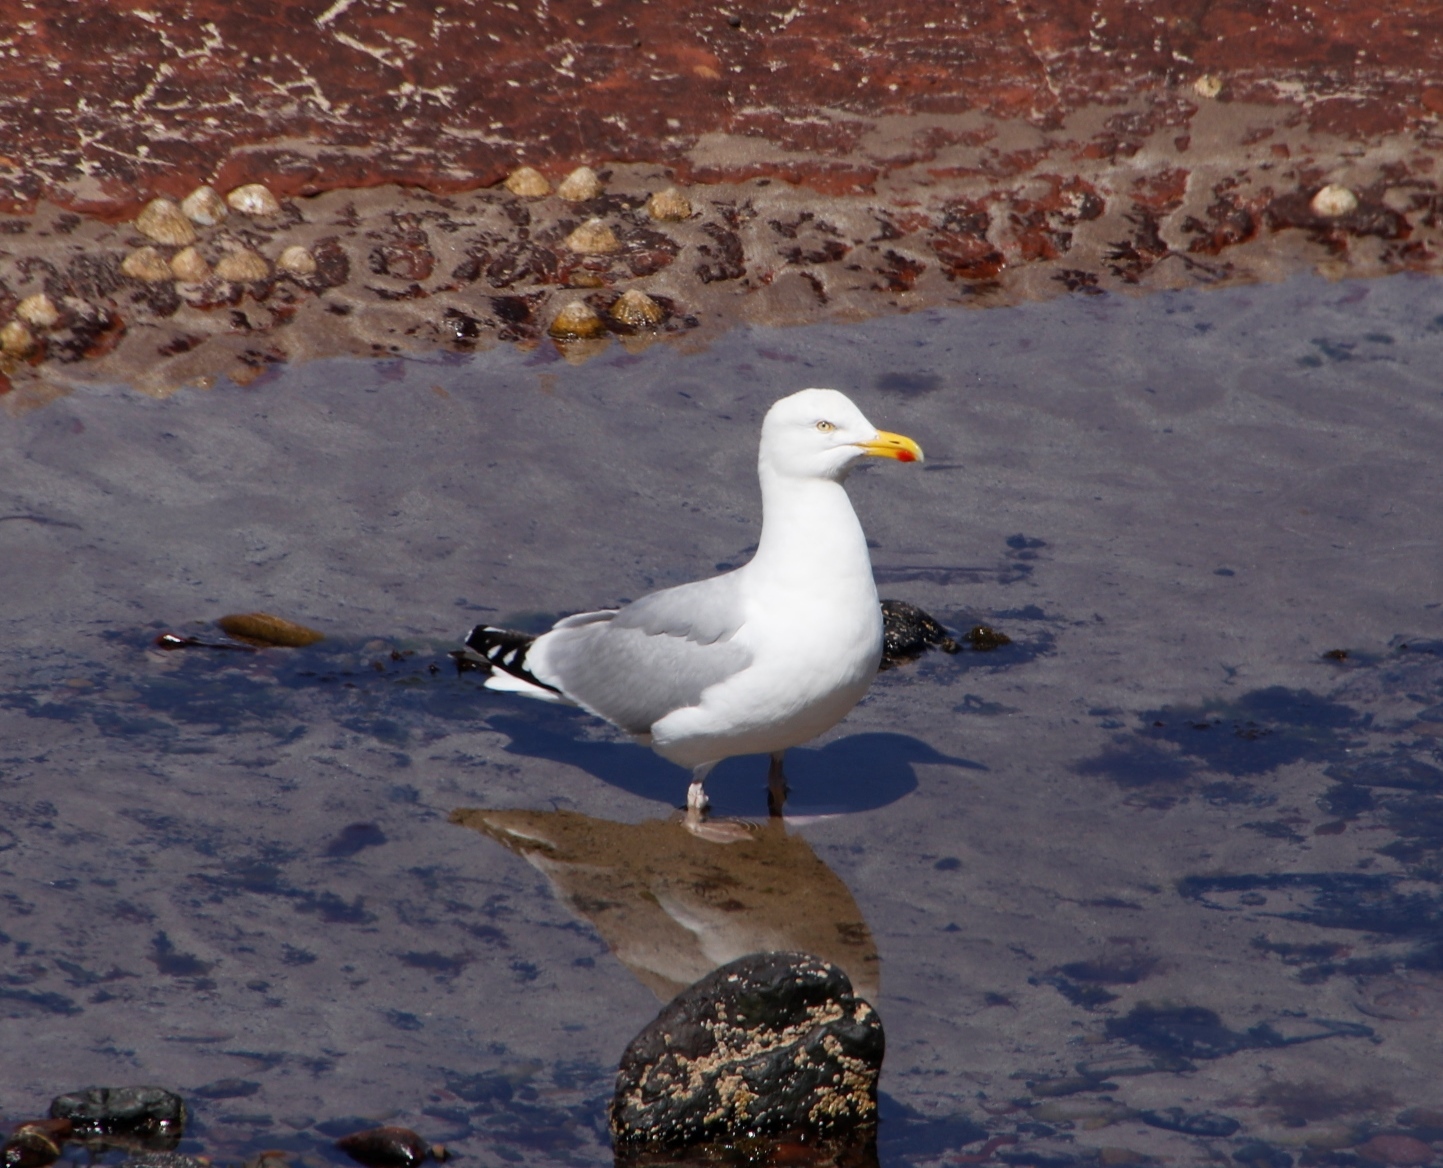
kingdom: Animalia
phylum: Chordata
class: Aves
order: Charadriiformes
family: Laridae
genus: Larus
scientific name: Larus argentatus
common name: Herring gull
